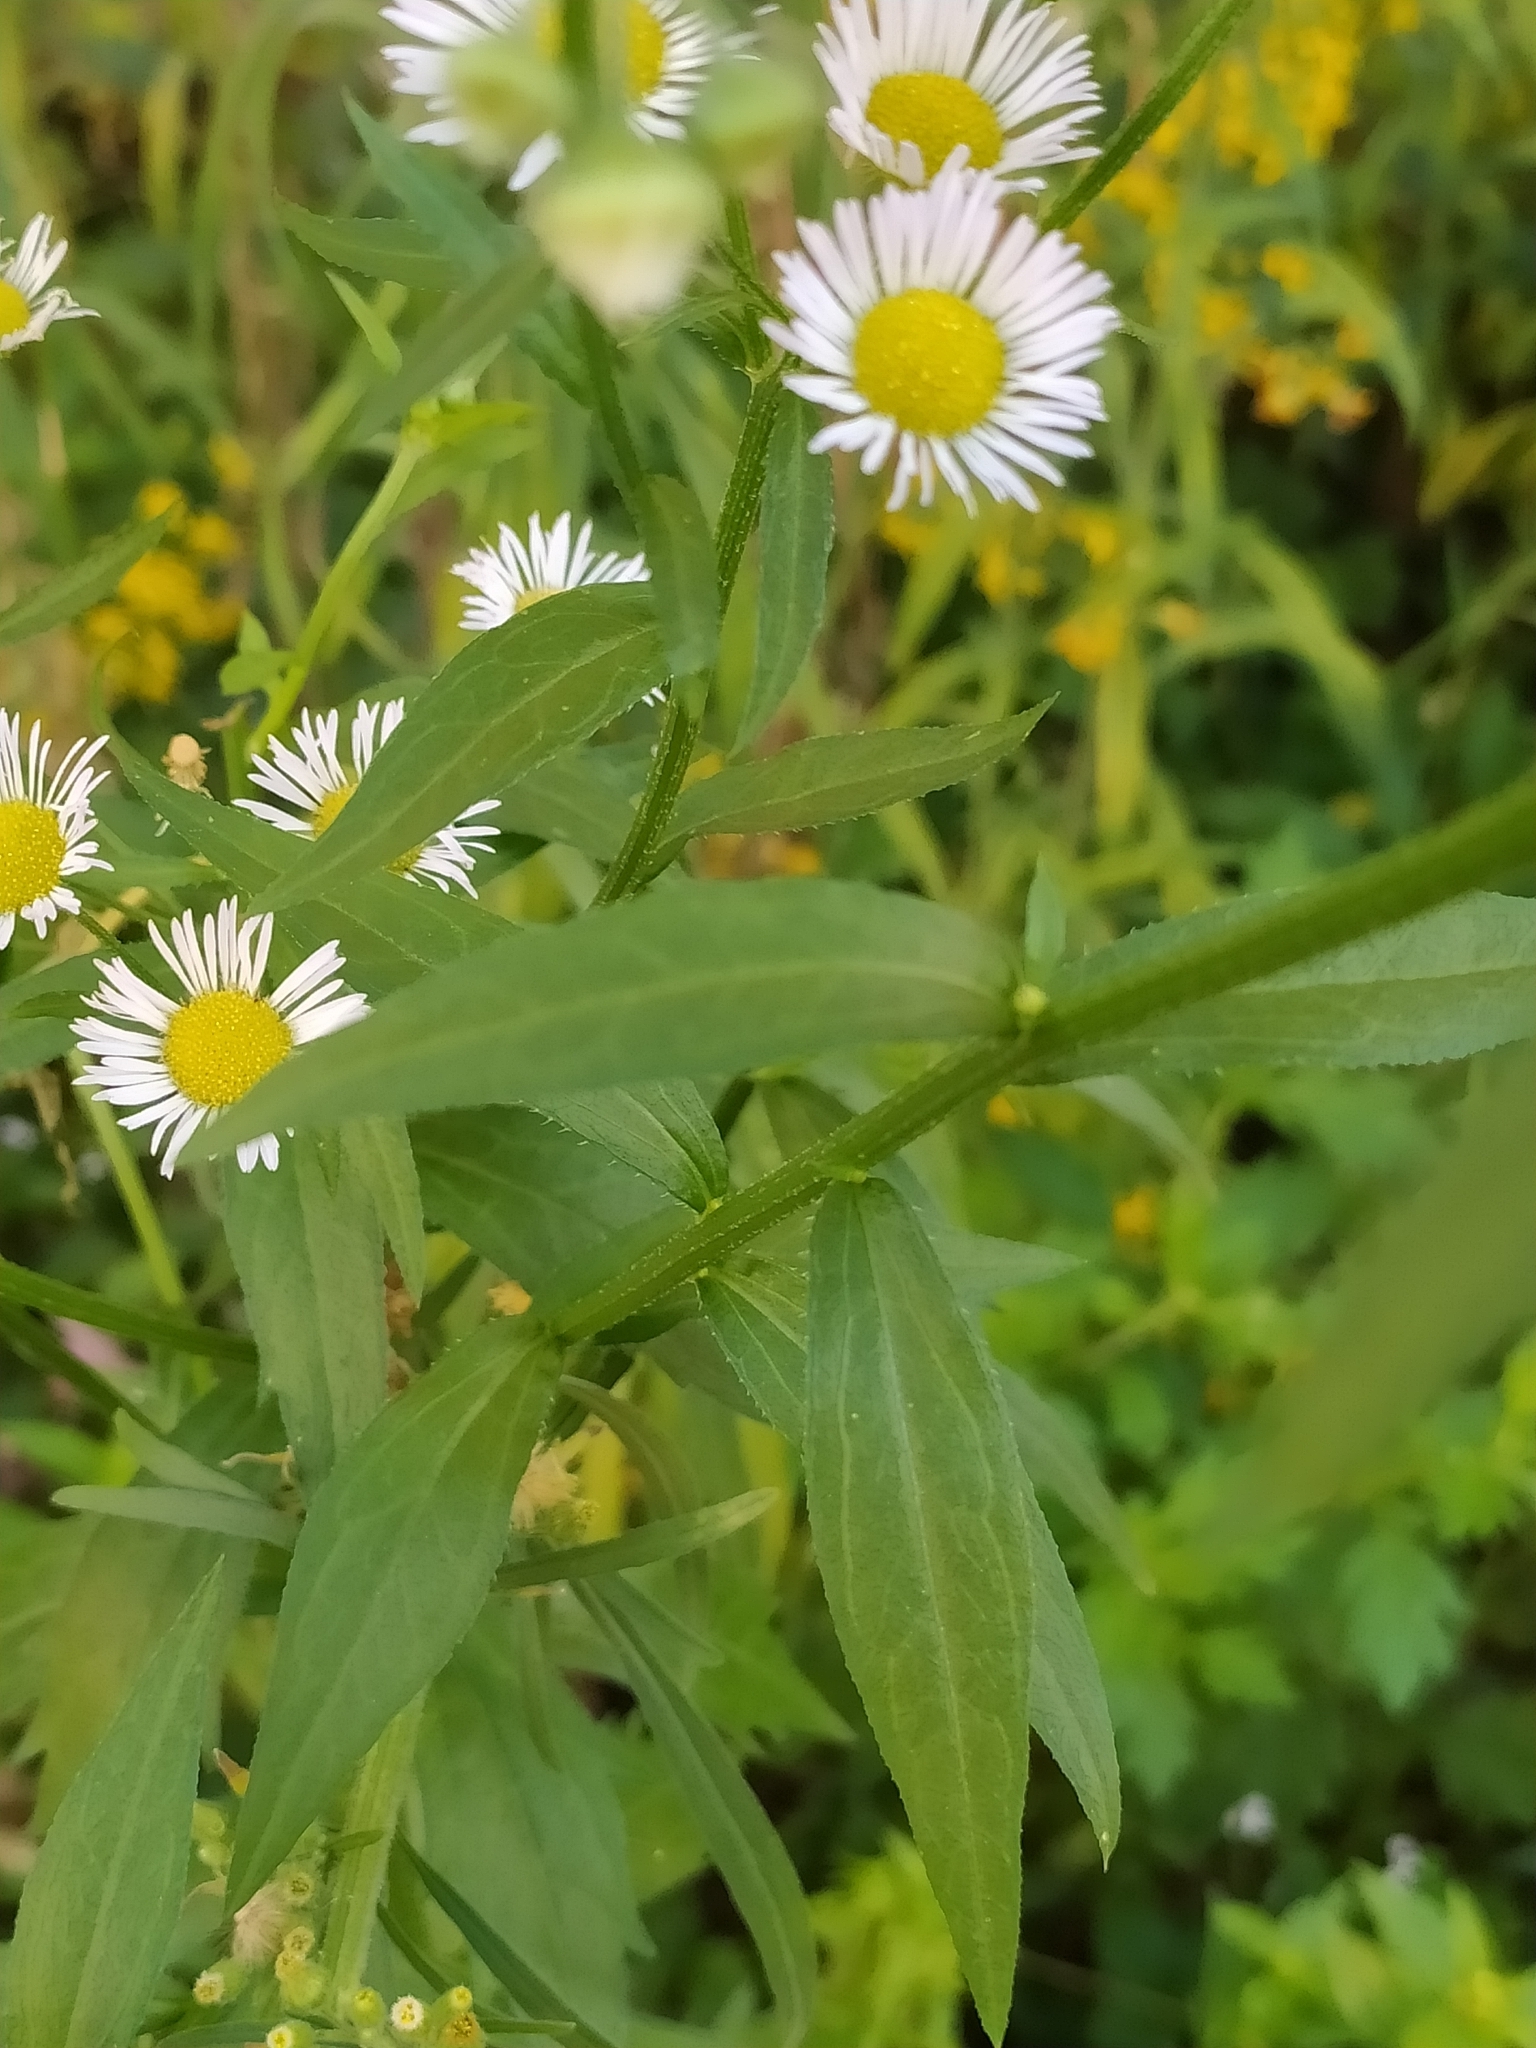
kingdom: Plantae
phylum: Tracheophyta
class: Magnoliopsida
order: Asterales
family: Asteraceae
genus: Erigeron
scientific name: Erigeron annuus
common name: Tall fleabane
